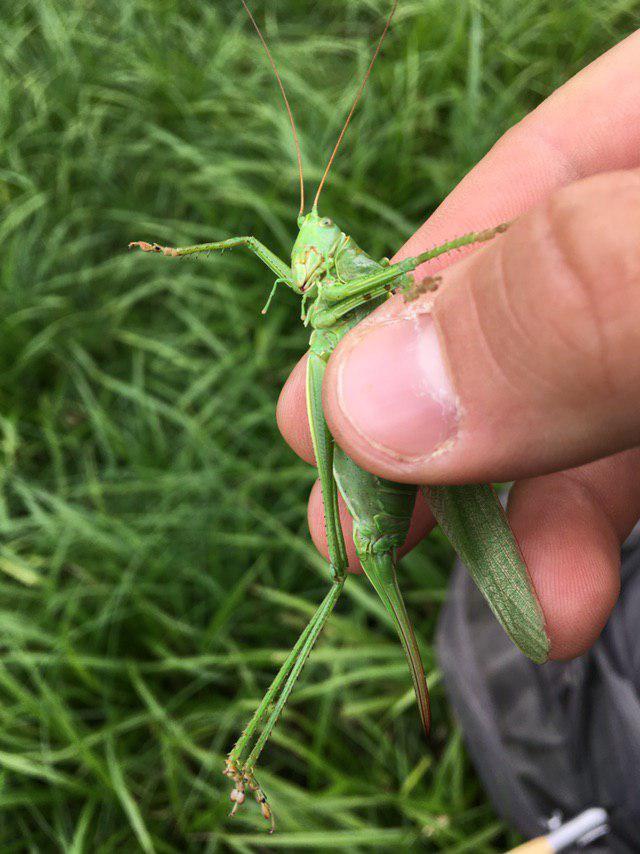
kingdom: Animalia
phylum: Arthropoda
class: Insecta
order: Orthoptera
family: Tettigoniidae
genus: Tettigonia
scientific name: Tettigonia viridissima
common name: Great green bush-cricket
